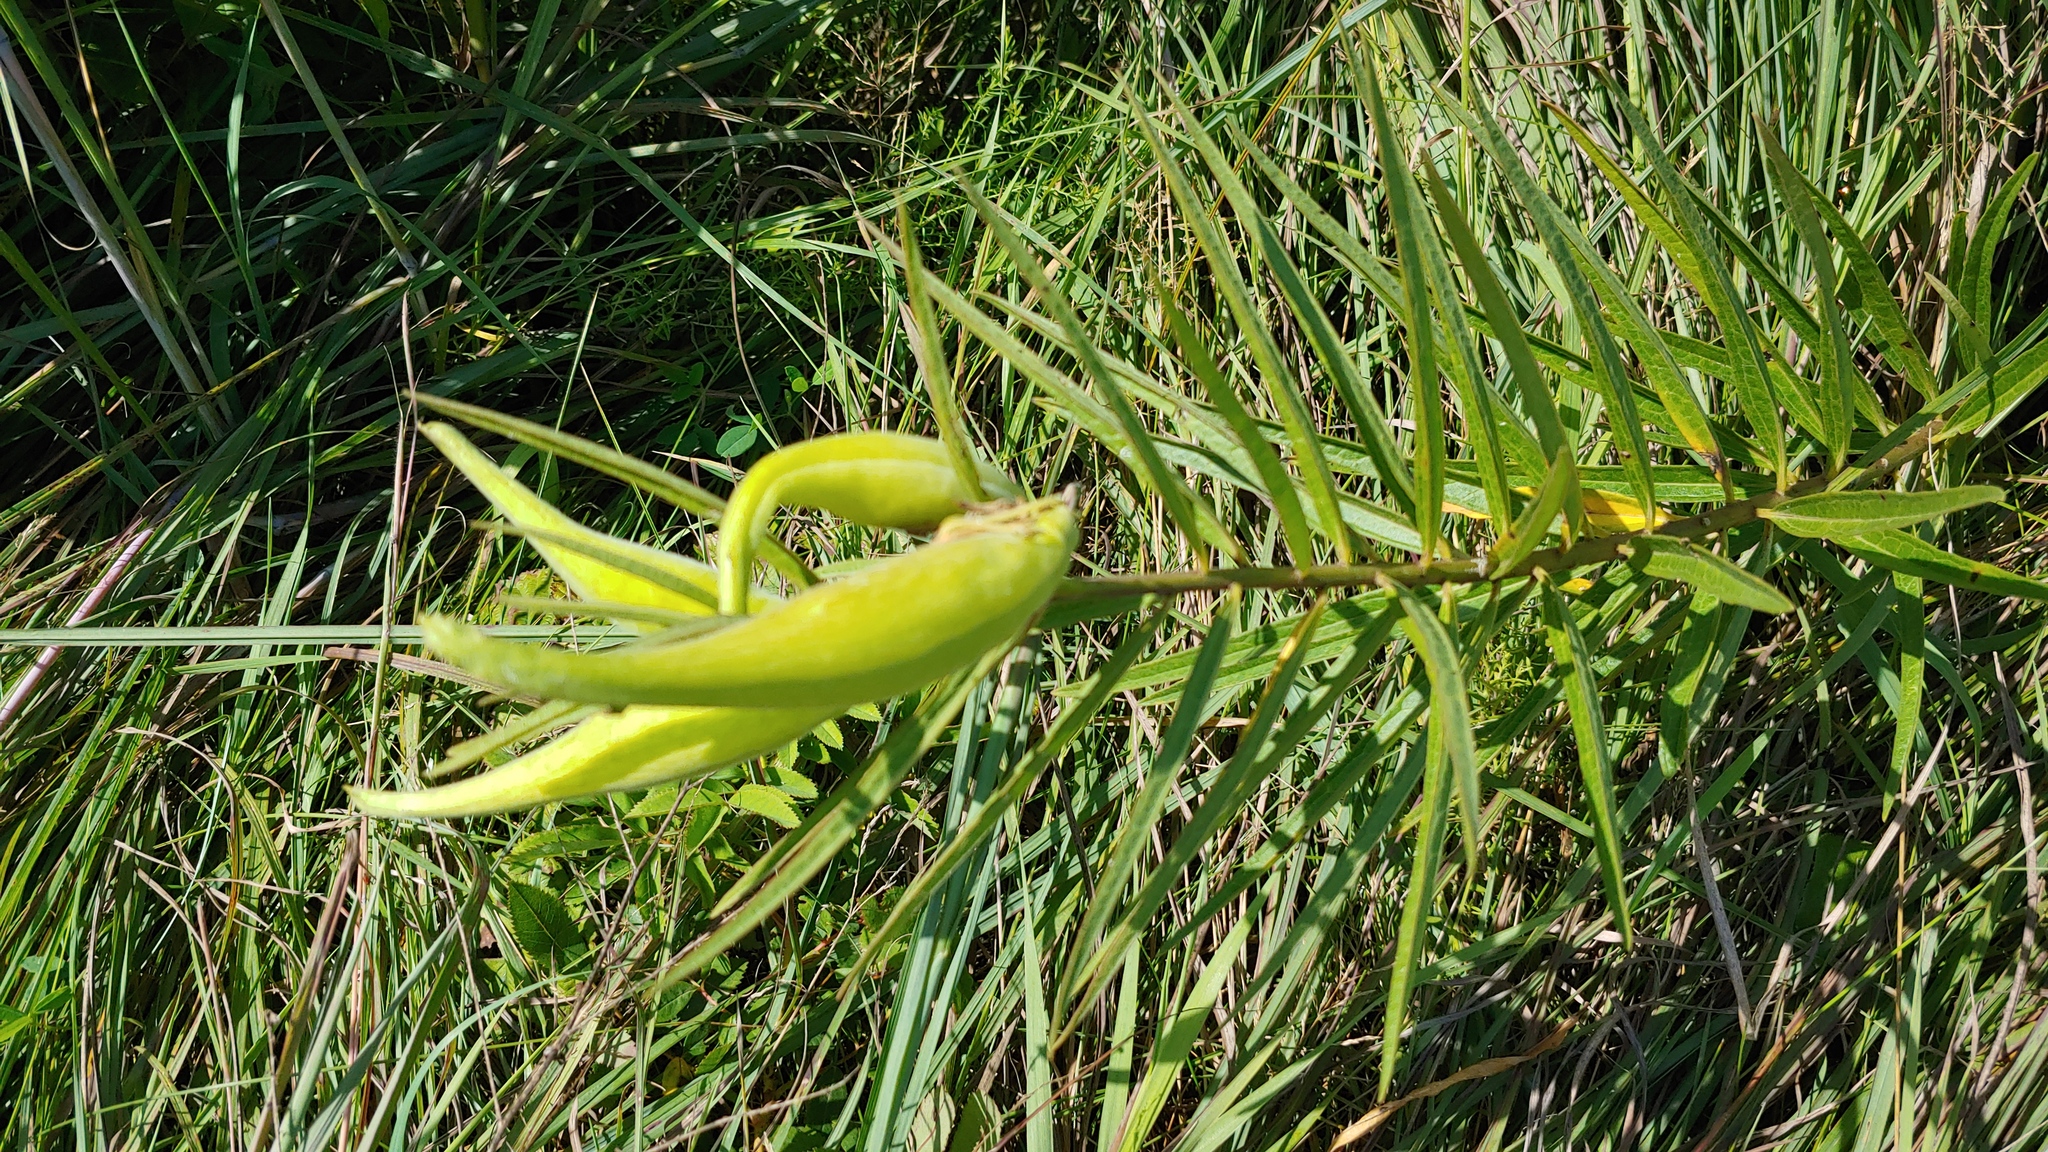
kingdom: Plantae
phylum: Tracheophyta
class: Magnoliopsida
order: Gentianales
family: Apocynaceae
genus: Asclepias
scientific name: Asclepias hirtella
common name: Prairie milkweed
